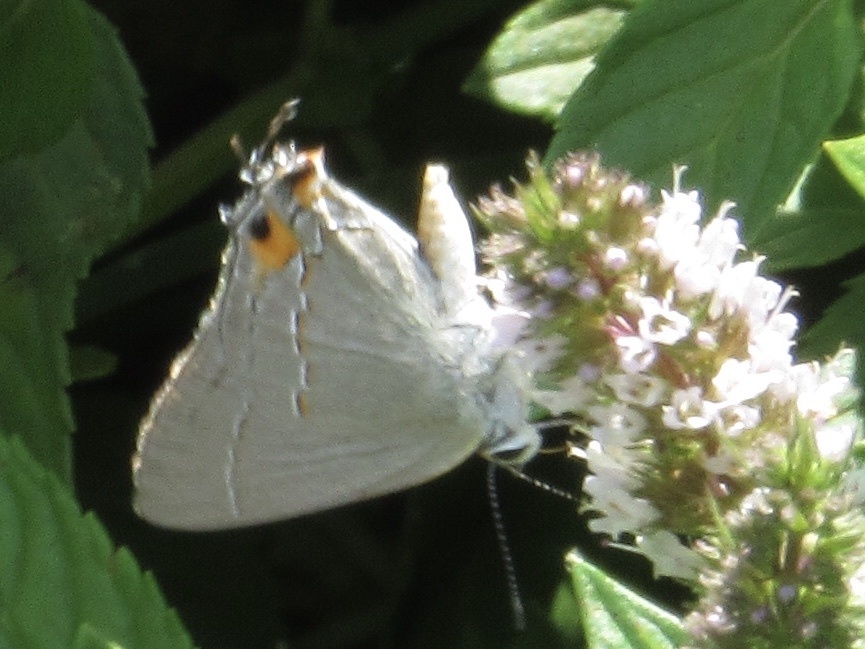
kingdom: Animalia
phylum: Arthropoda
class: Insecta
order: Lepidoptera
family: Lycaenidae
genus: Strymon
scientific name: Strymon melinus
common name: Gray hairstreak
